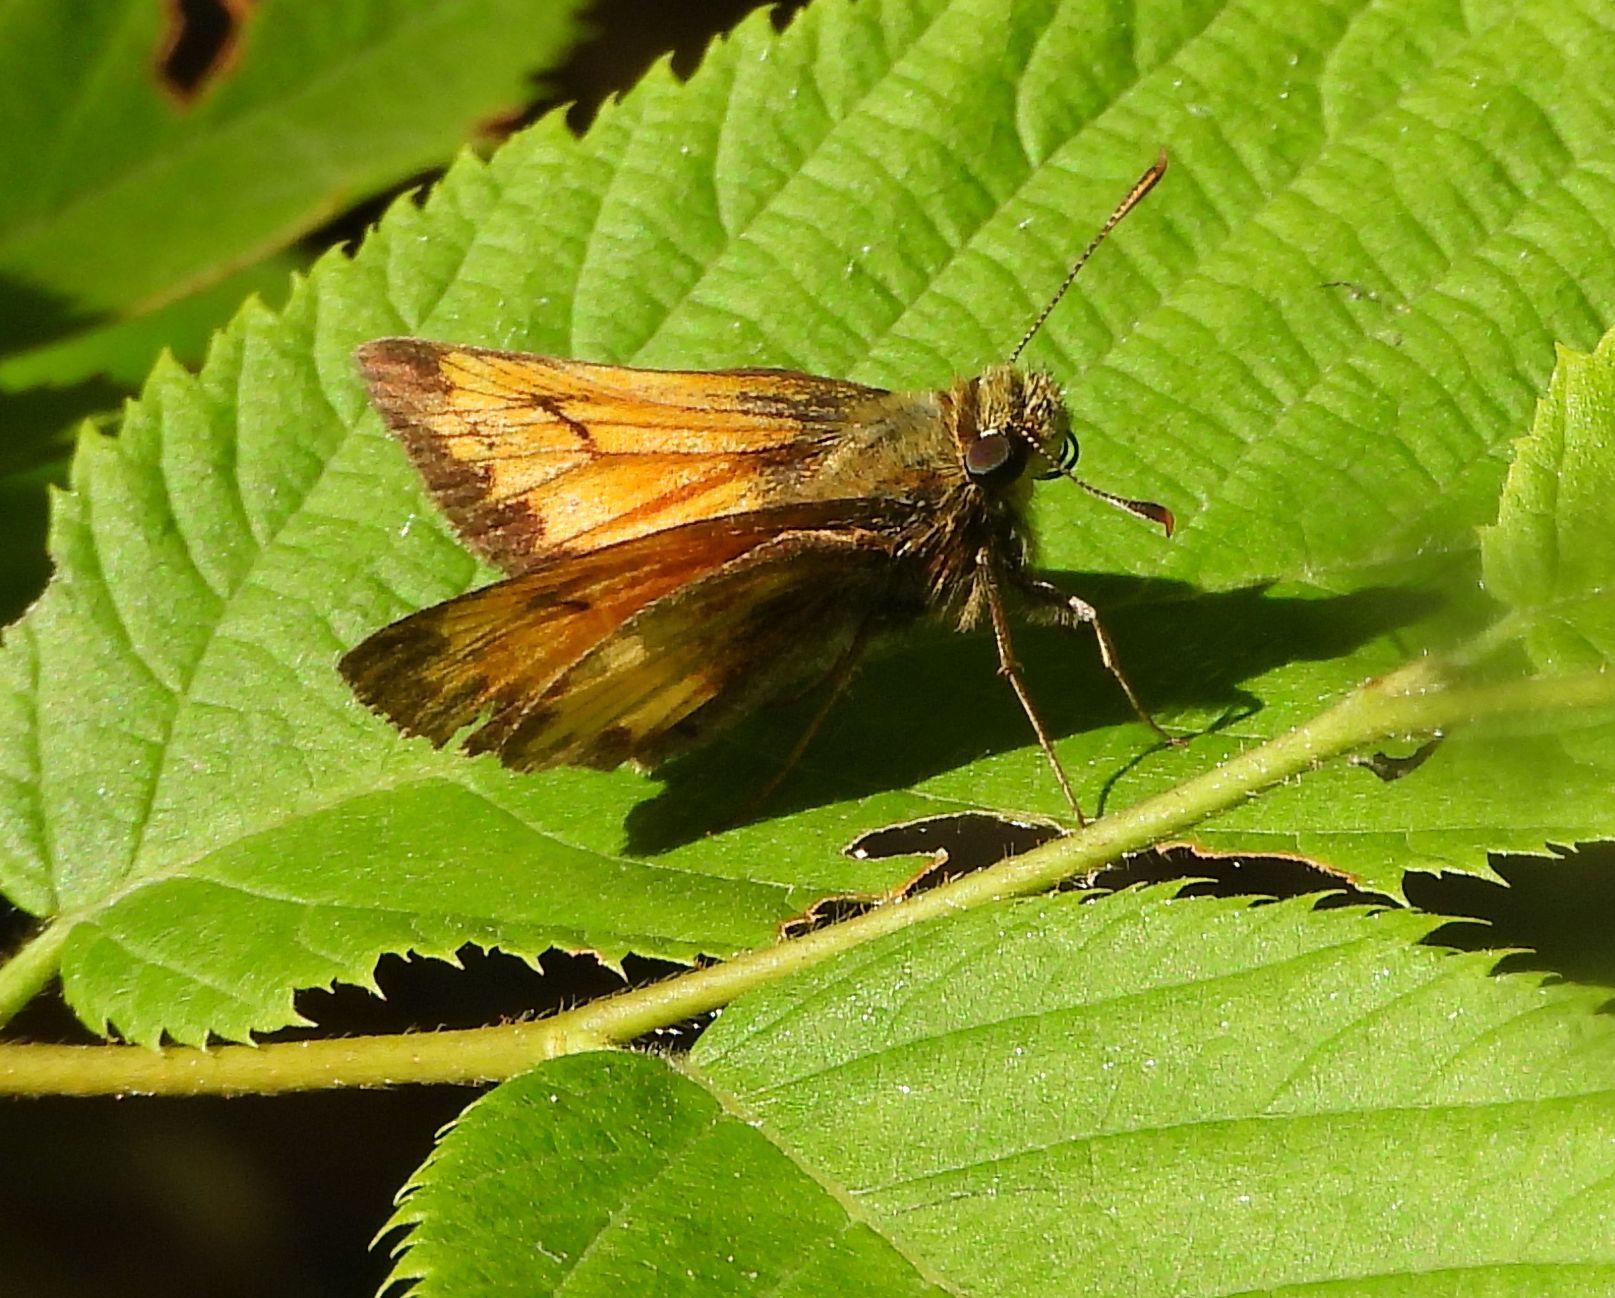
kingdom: Animalia
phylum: Arthropoda
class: Insecta
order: Lepidoptera
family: Hesperiidae
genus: Lon
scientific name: Lon hobomok
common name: Hobomok skipper
